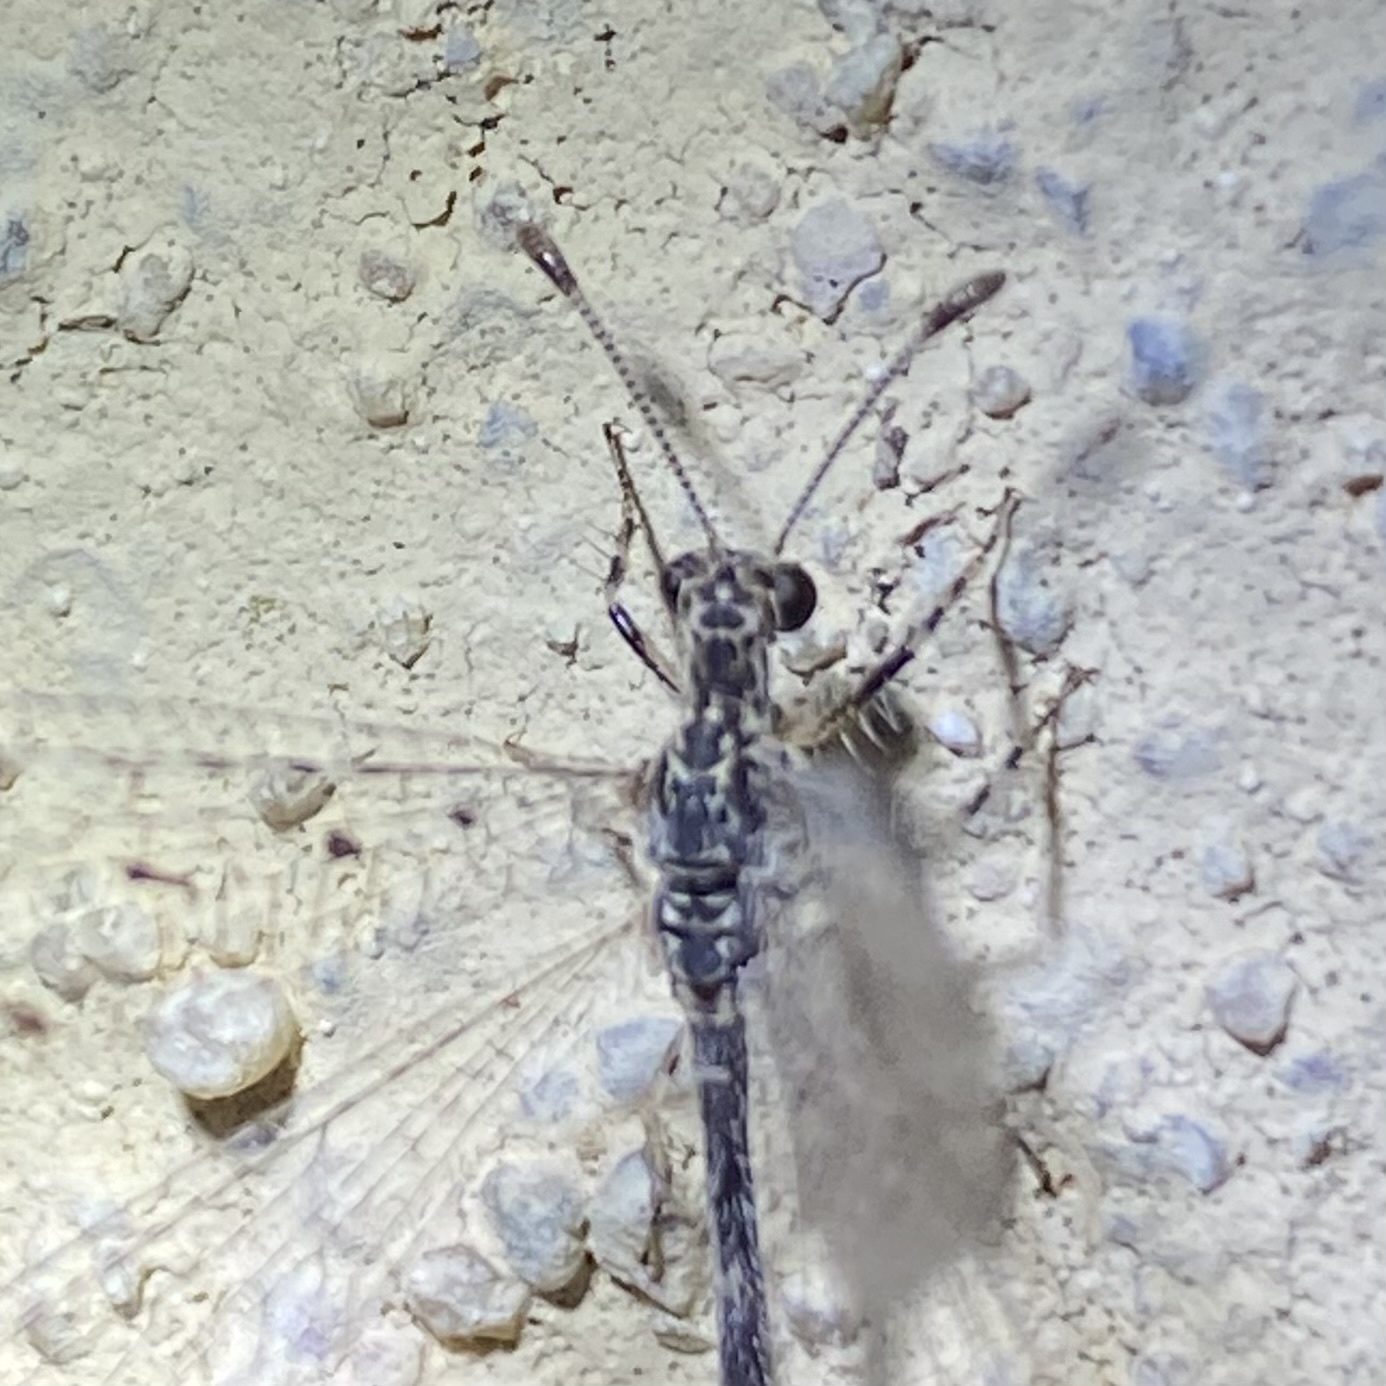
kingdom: Animalia
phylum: Arthropoda
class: Insecta
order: Neuroptera
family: Myrmeleontidae
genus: Chaetoleon
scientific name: Chaetoleon pusillus
